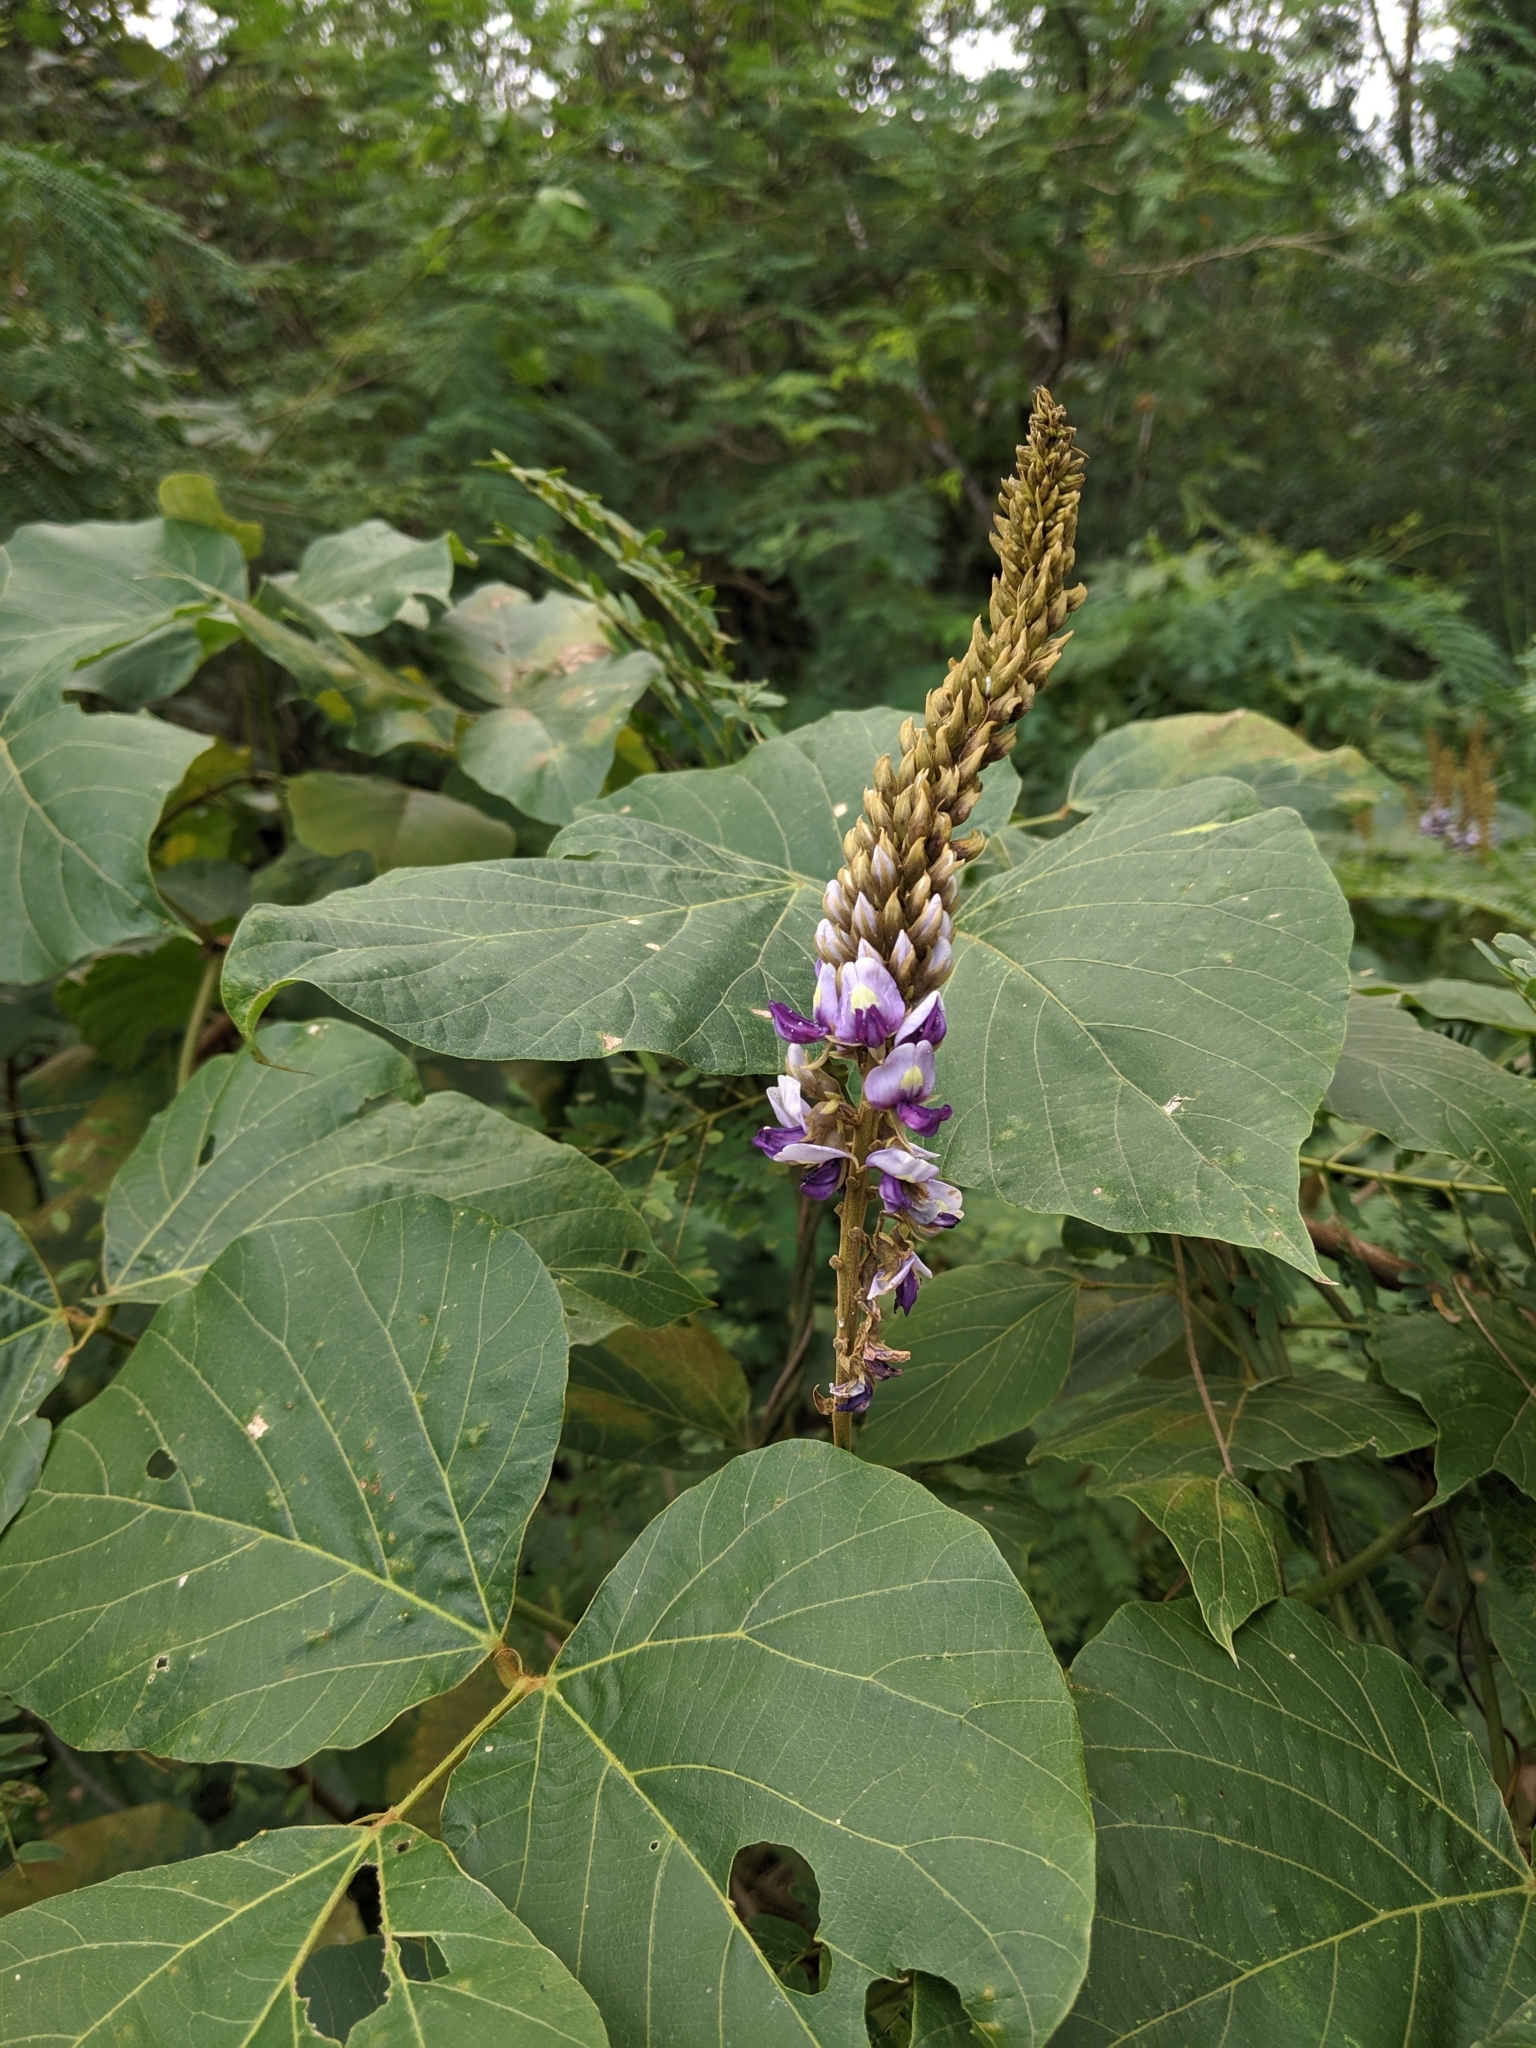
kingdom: Plantae
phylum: Tracheophyta
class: Magnoliopsida
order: Fabales
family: Fabaceae
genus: Pueraria
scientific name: Pueraria montana
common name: Kudzu
